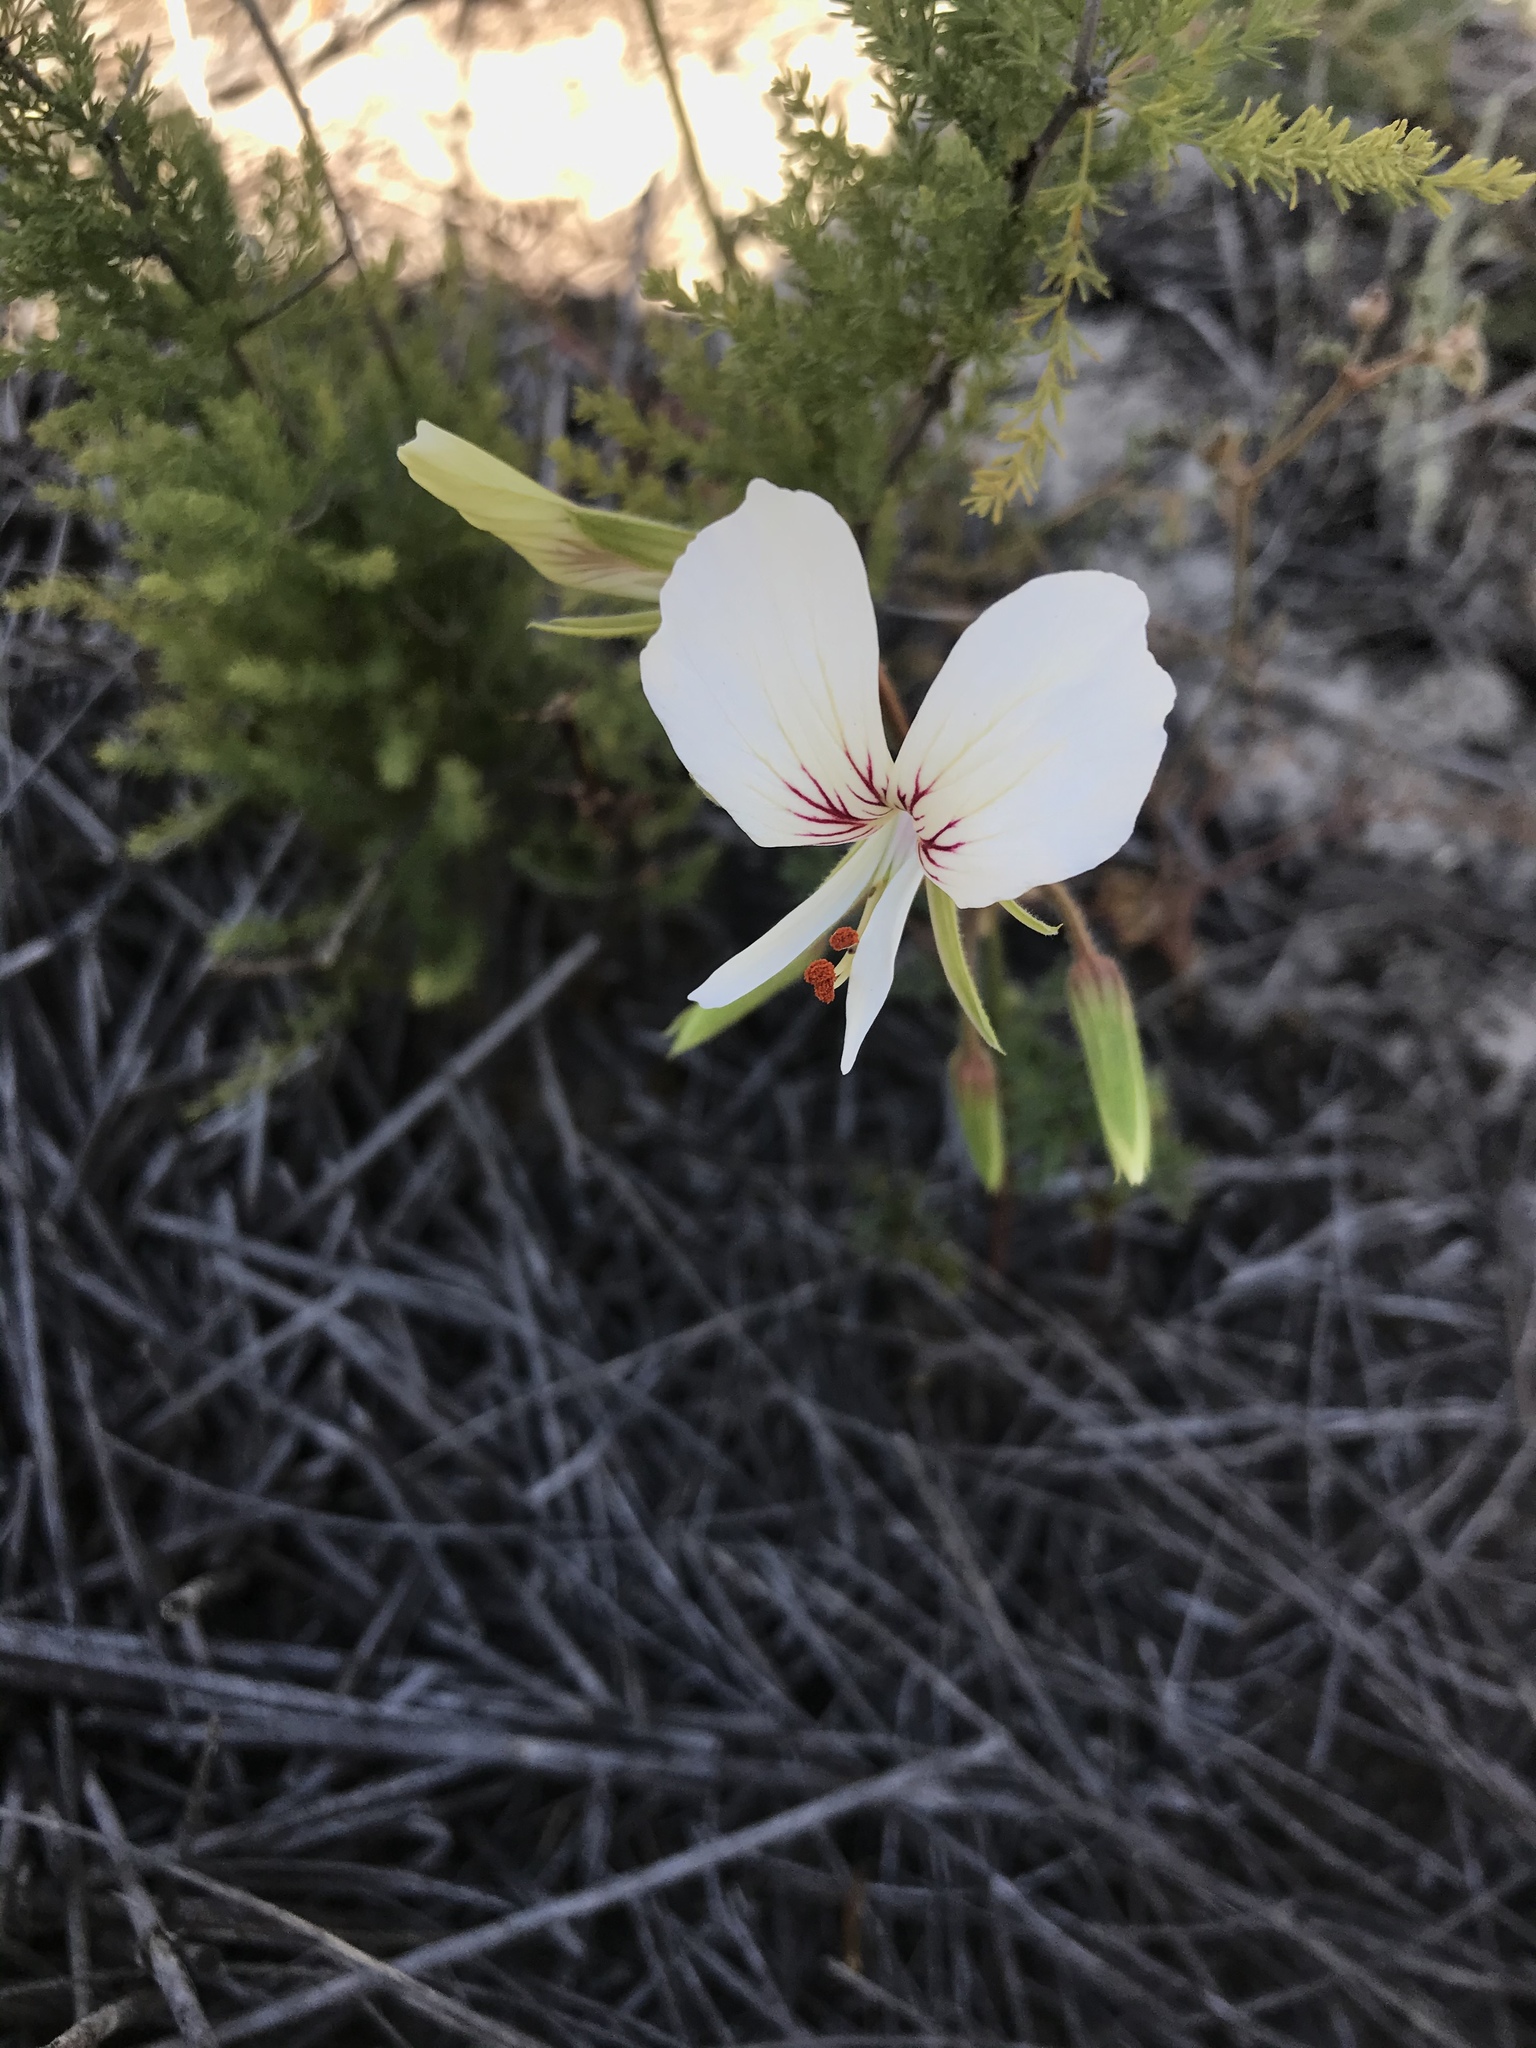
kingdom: Plantae
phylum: Tracheophyta
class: Magnoliopsida
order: Geraniales
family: Geraniaceae
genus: Pelargonium
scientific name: Pelargonium longicaule
